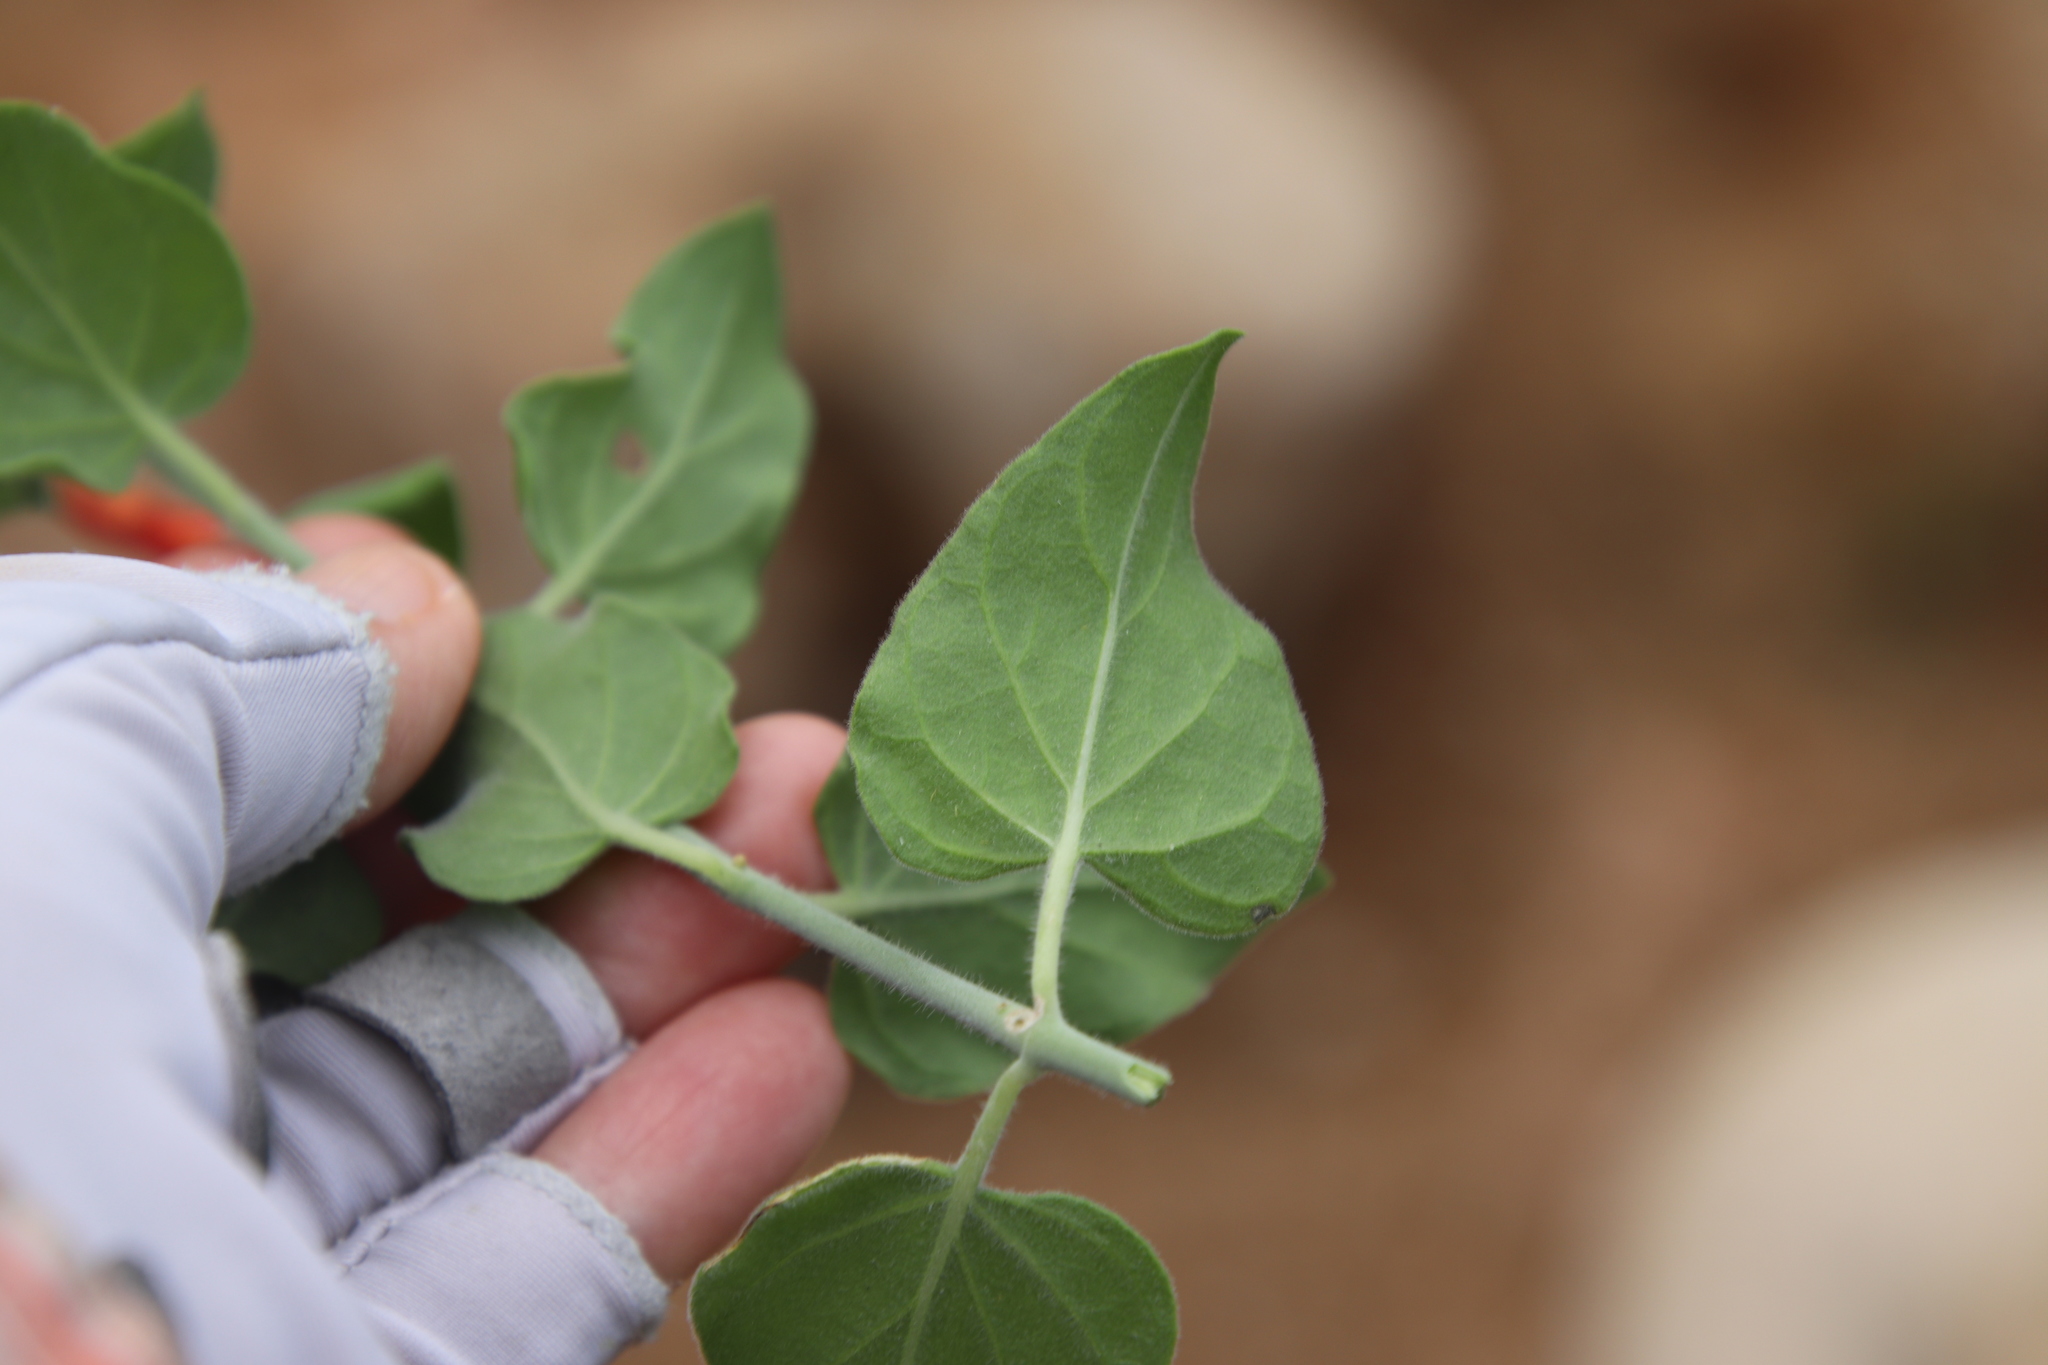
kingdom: Plantae
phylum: Tracheophyta
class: Magnoliopsida
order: Lamiales
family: Acanthaceae
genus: Justicia
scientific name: Justicia californica
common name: Chuparosa-honeysuckle
